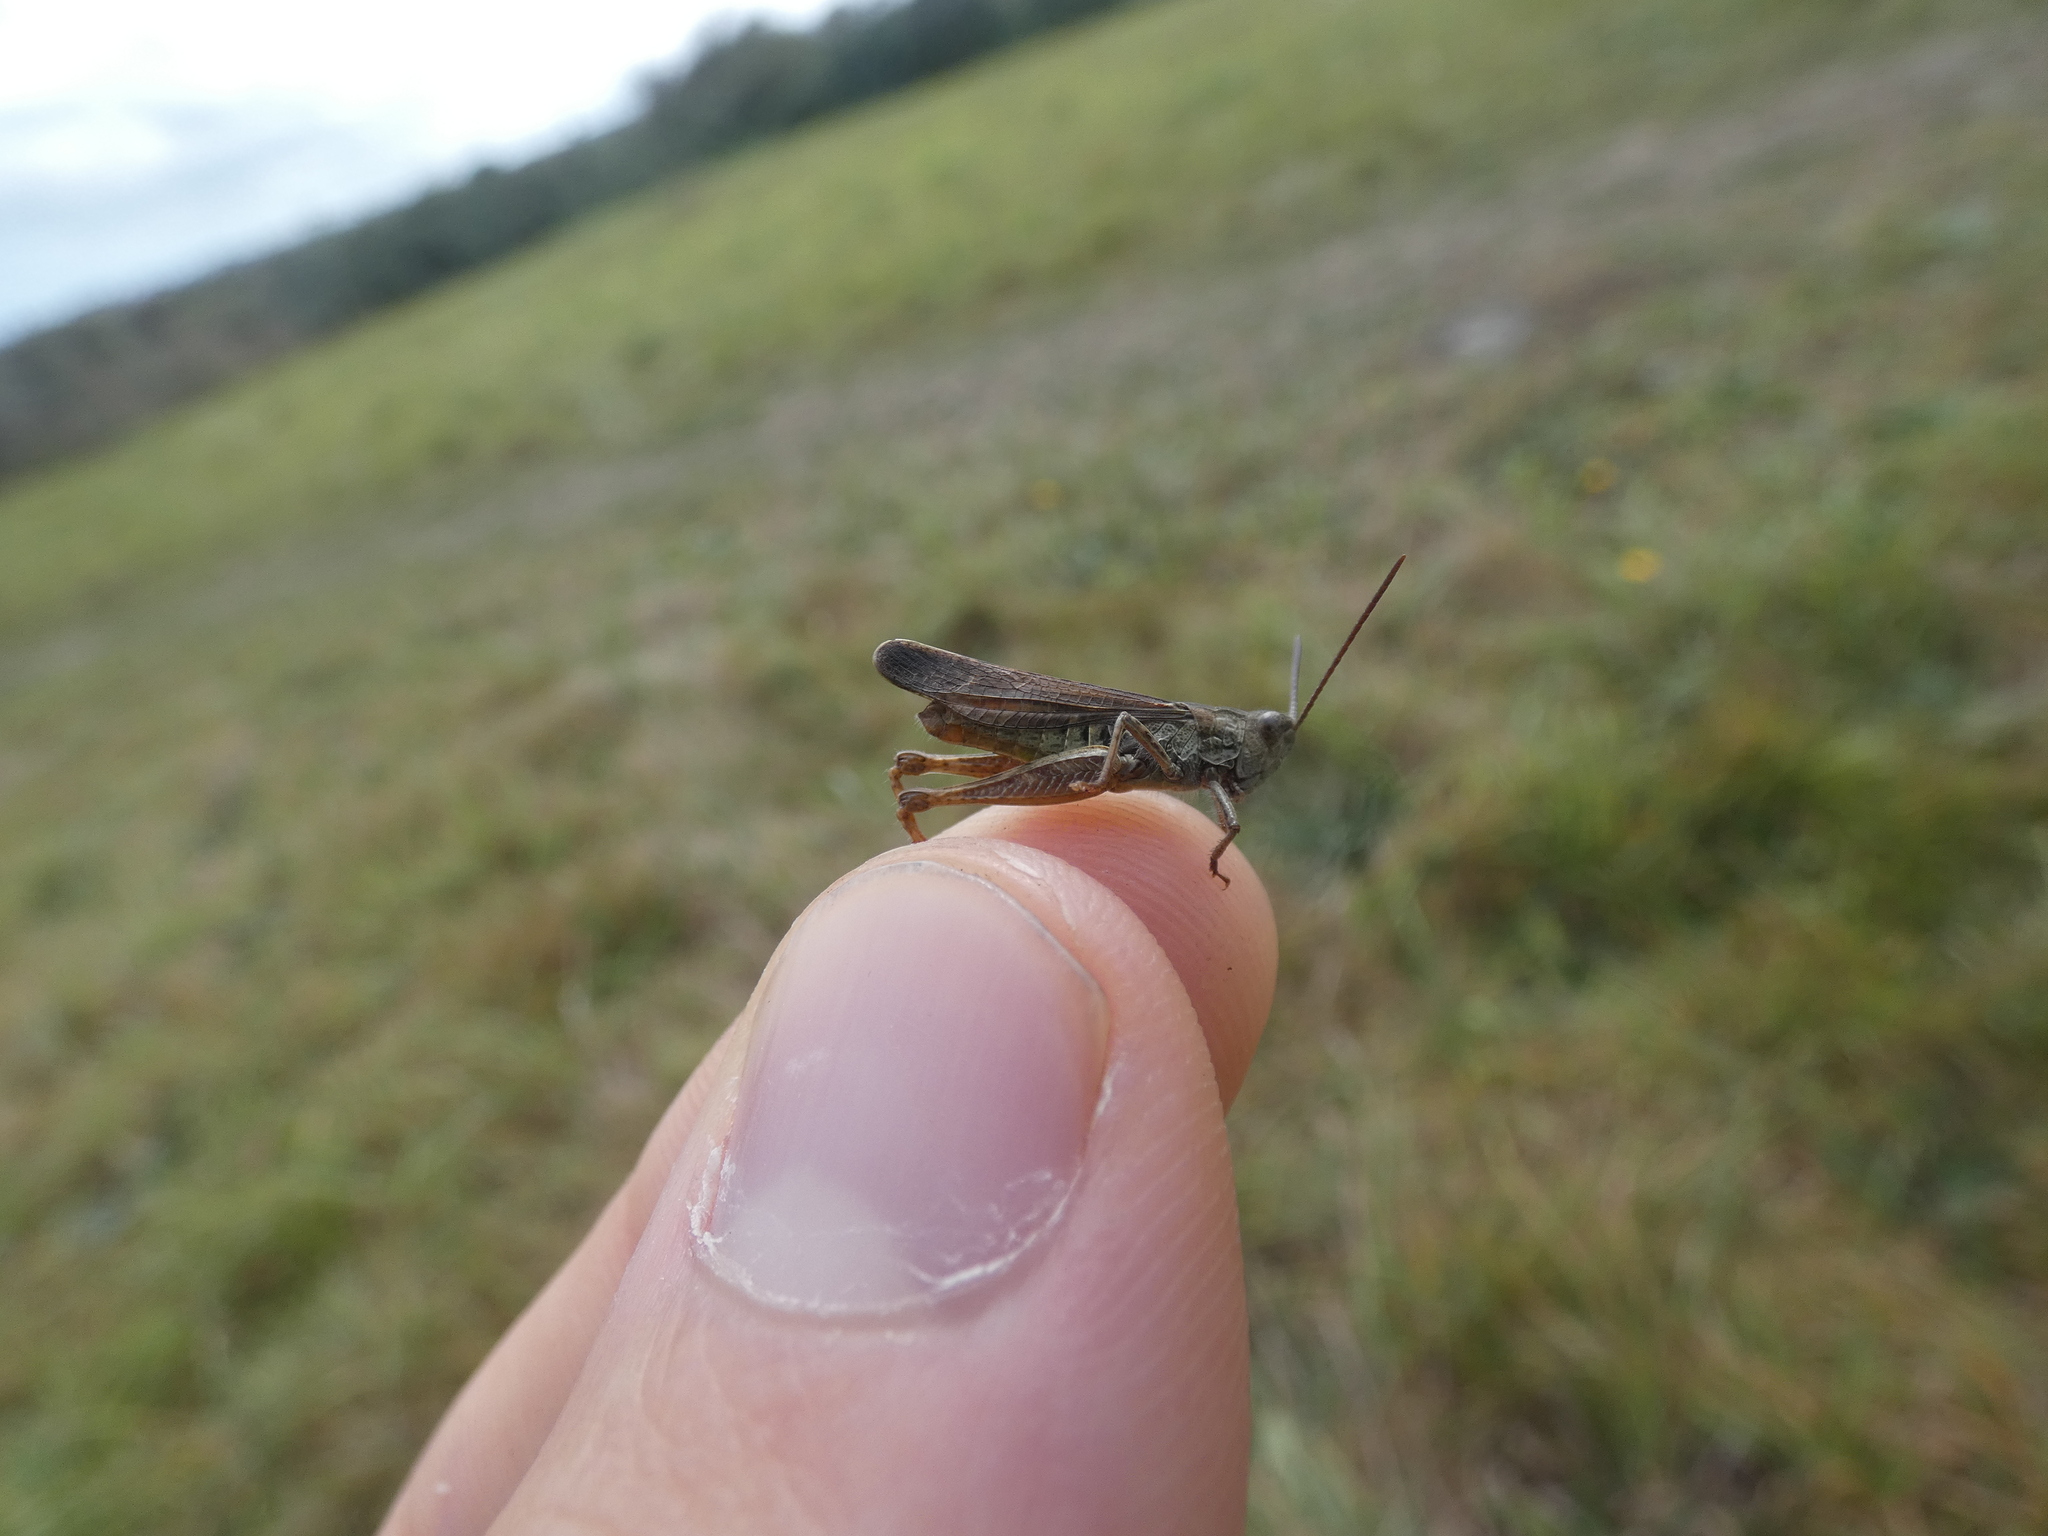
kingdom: Animalia
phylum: Arthropoda
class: Insecta
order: Orthoptera
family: Acrididae
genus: Chorthippus
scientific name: Chorthippus biguttulus
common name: Bow-winged grasshopper
